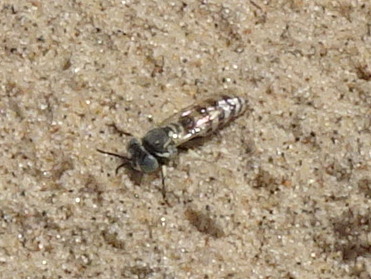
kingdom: Animalia
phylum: Arthropoda
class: Insecta
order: Hymenoptera
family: Crabronidae
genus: Microbembex
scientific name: Microbembex monodonta
